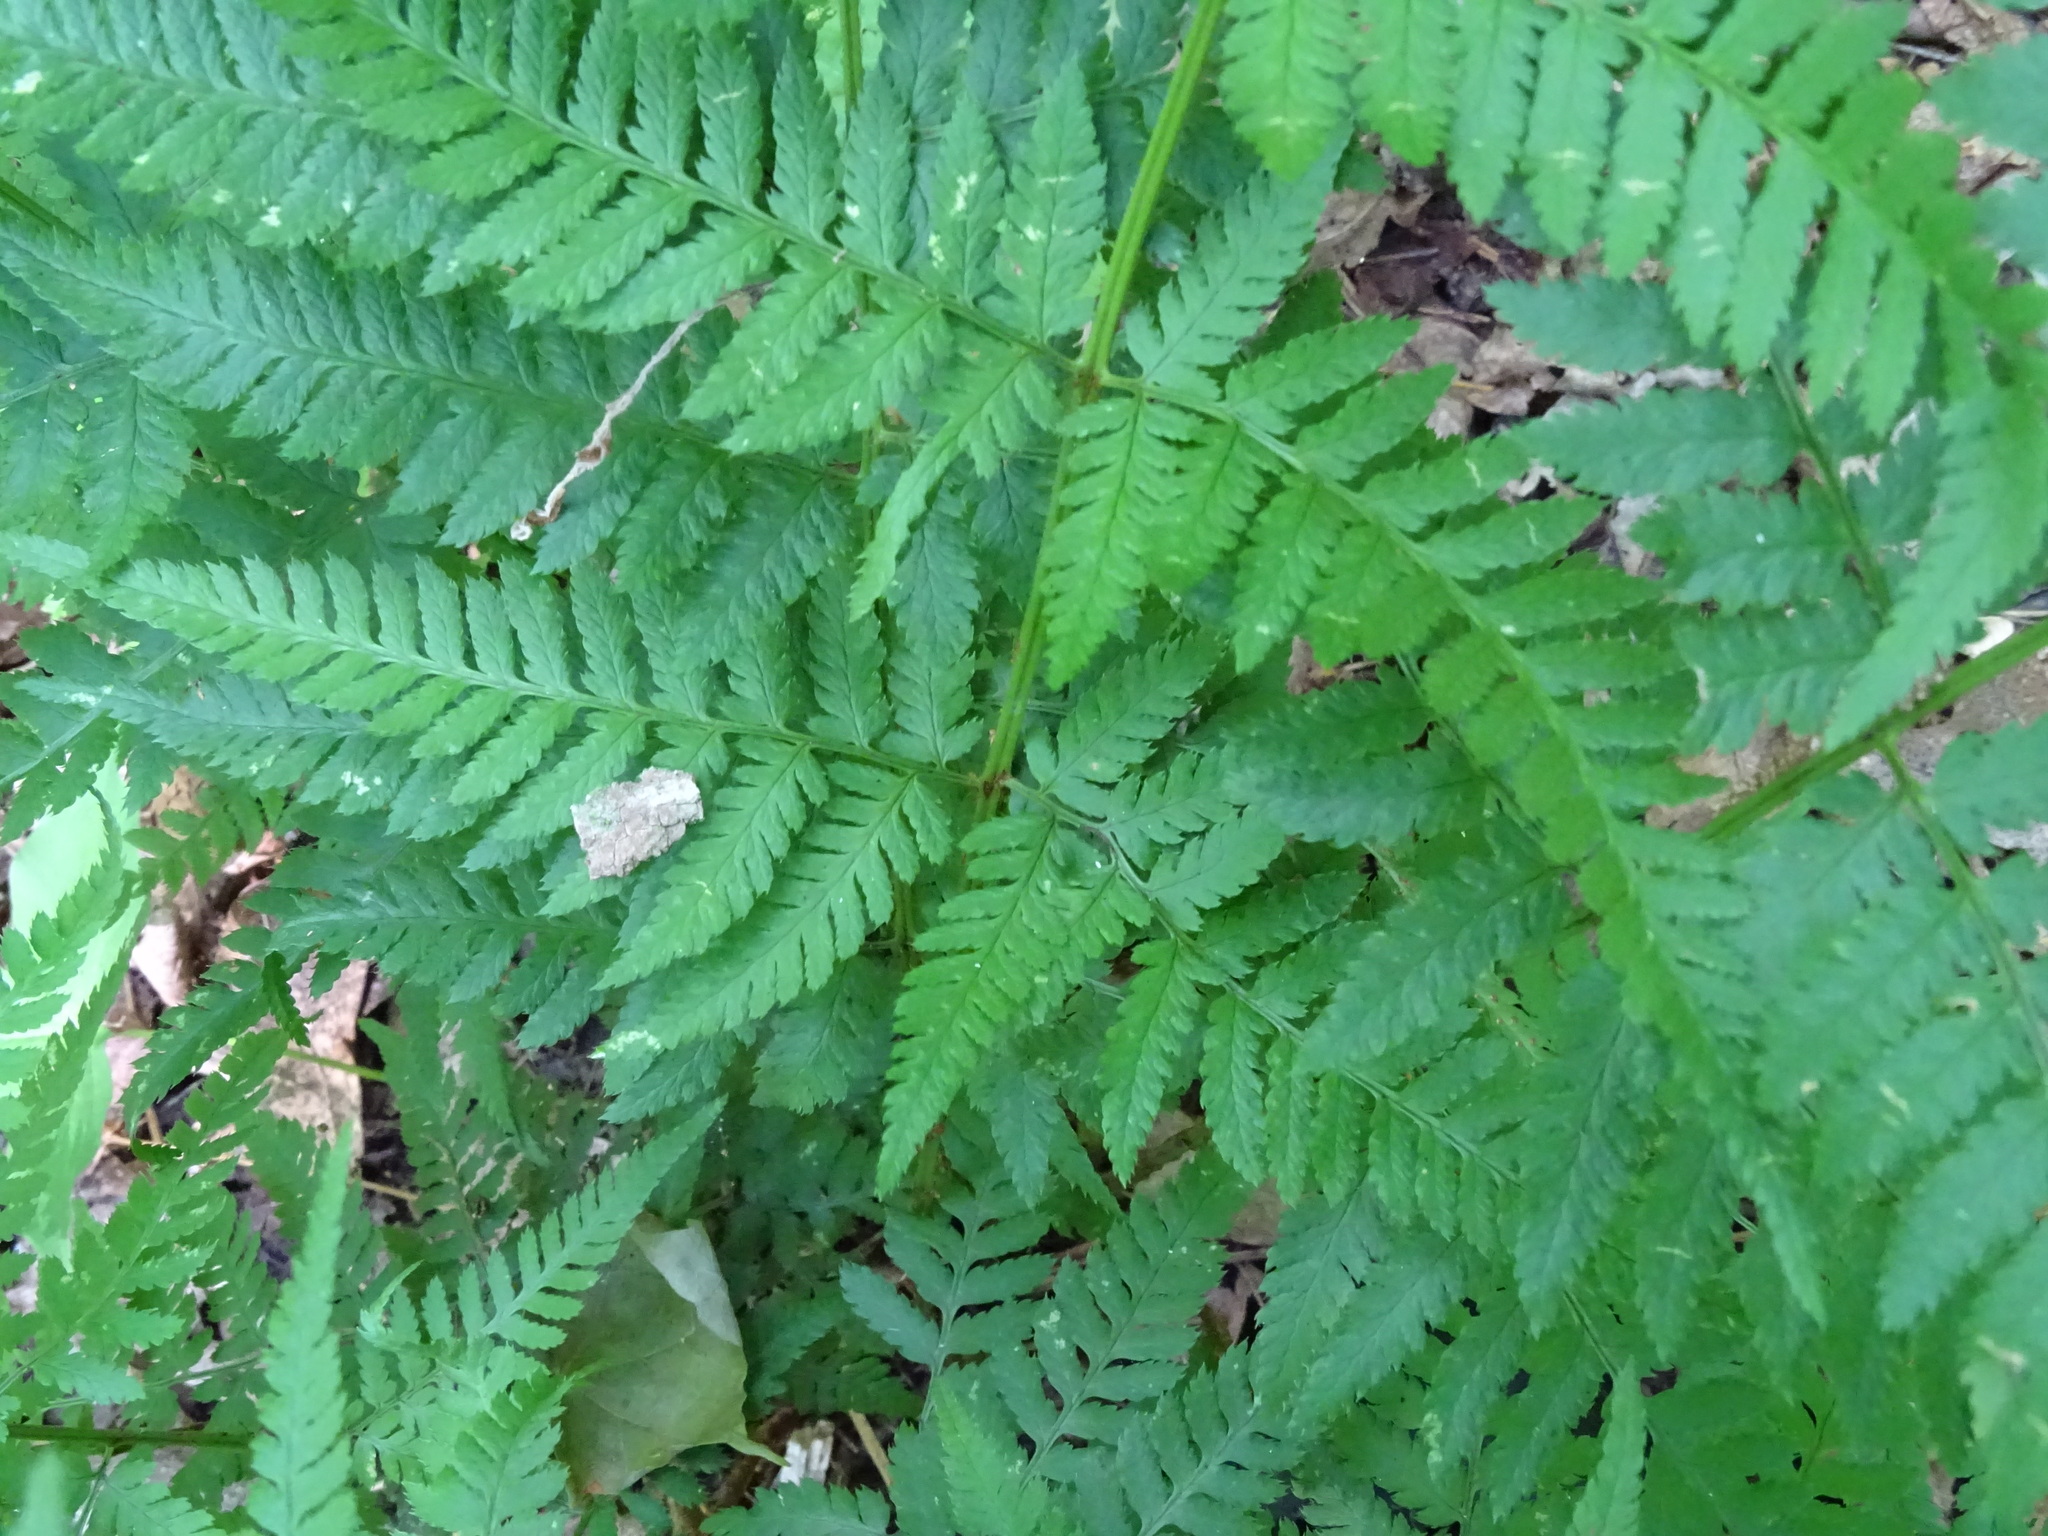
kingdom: Plantae
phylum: Tracheophyta
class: Polypodiopsida
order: Polypodiales
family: Dryopteridaceae
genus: Dryopteris
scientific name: Dryopteris carthusiana
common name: Narrow buckler-fern
